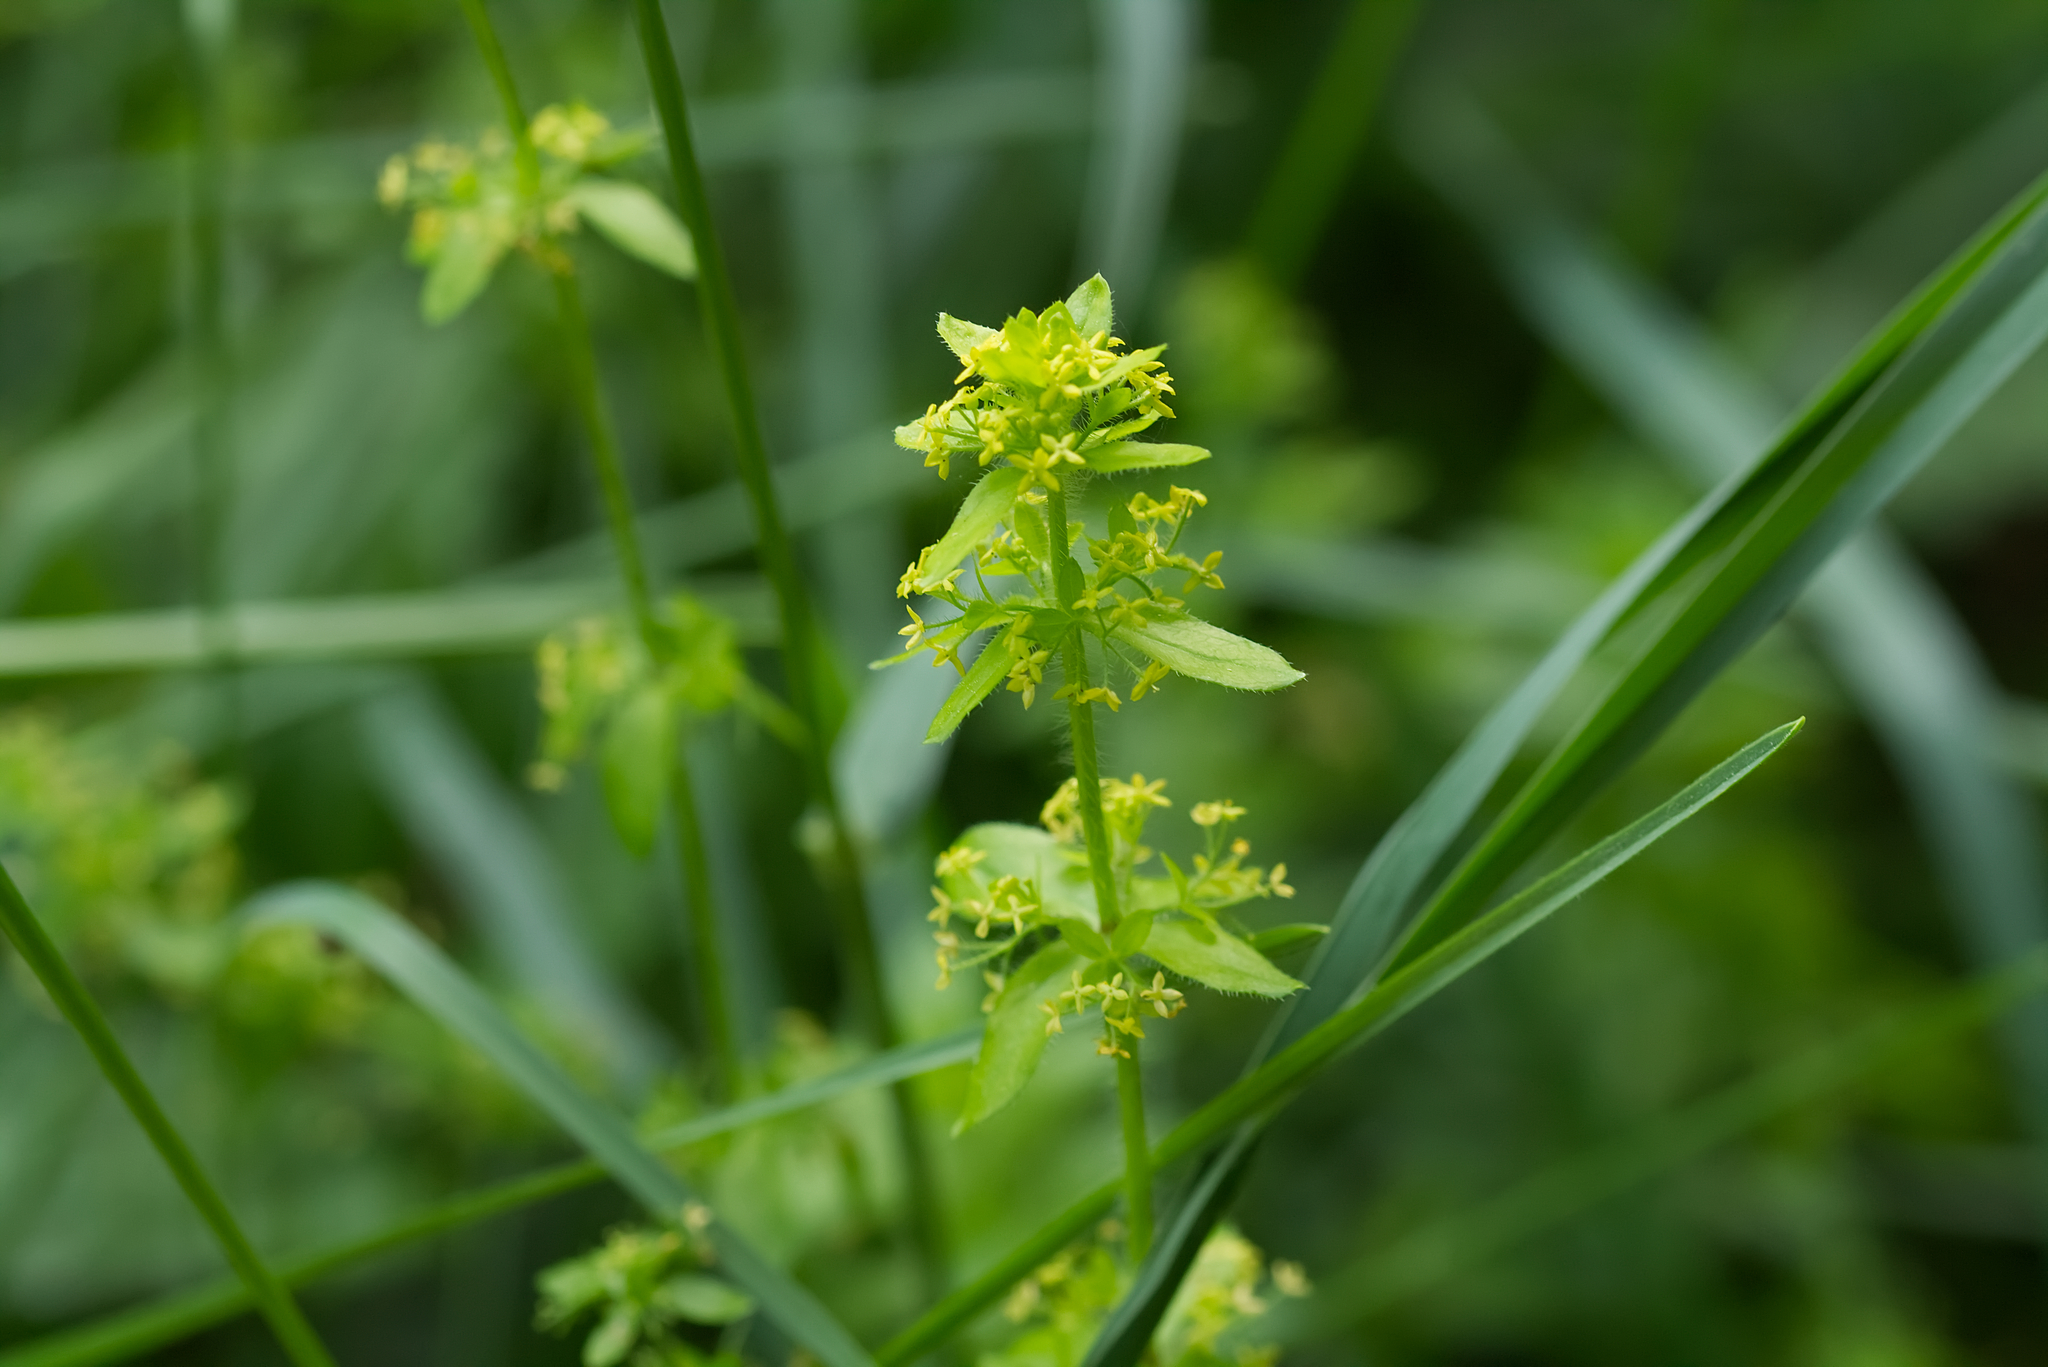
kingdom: Plantae
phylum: Tracheophyta
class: Magnoliopsida
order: Gentianales
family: Rubiaceae
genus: Cruciata
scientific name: Cruciata laevipes
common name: Crosswort
